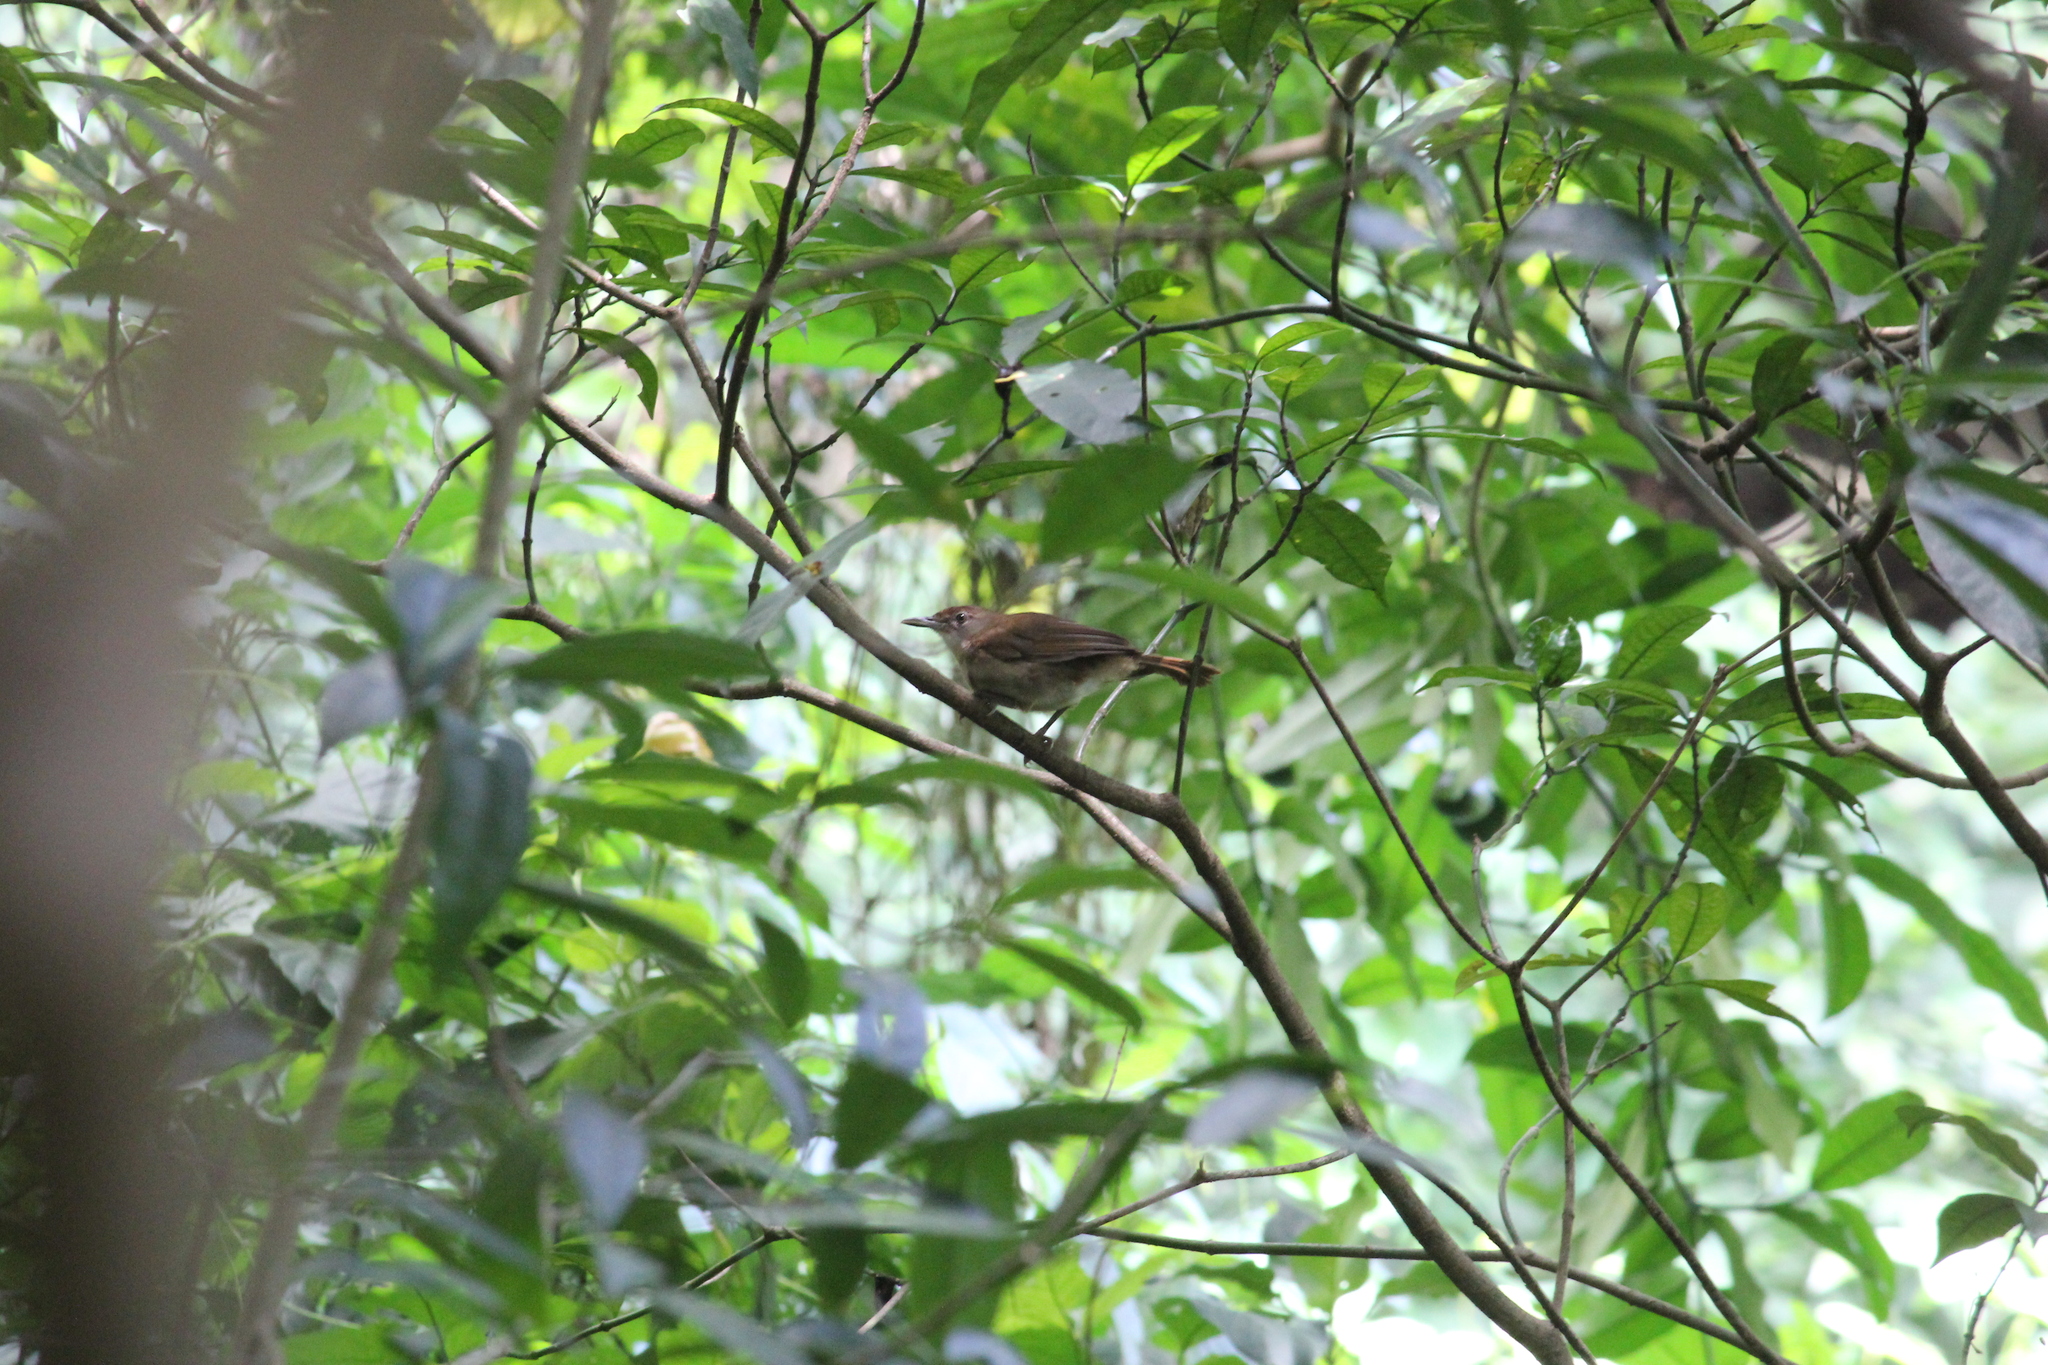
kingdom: Animalia
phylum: Chordata
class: Aves
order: Passeriformes
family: Pycnonotidae
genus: Phyllastrephus
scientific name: Phyllastrephus terrestris
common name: Terrestrial brownbul
